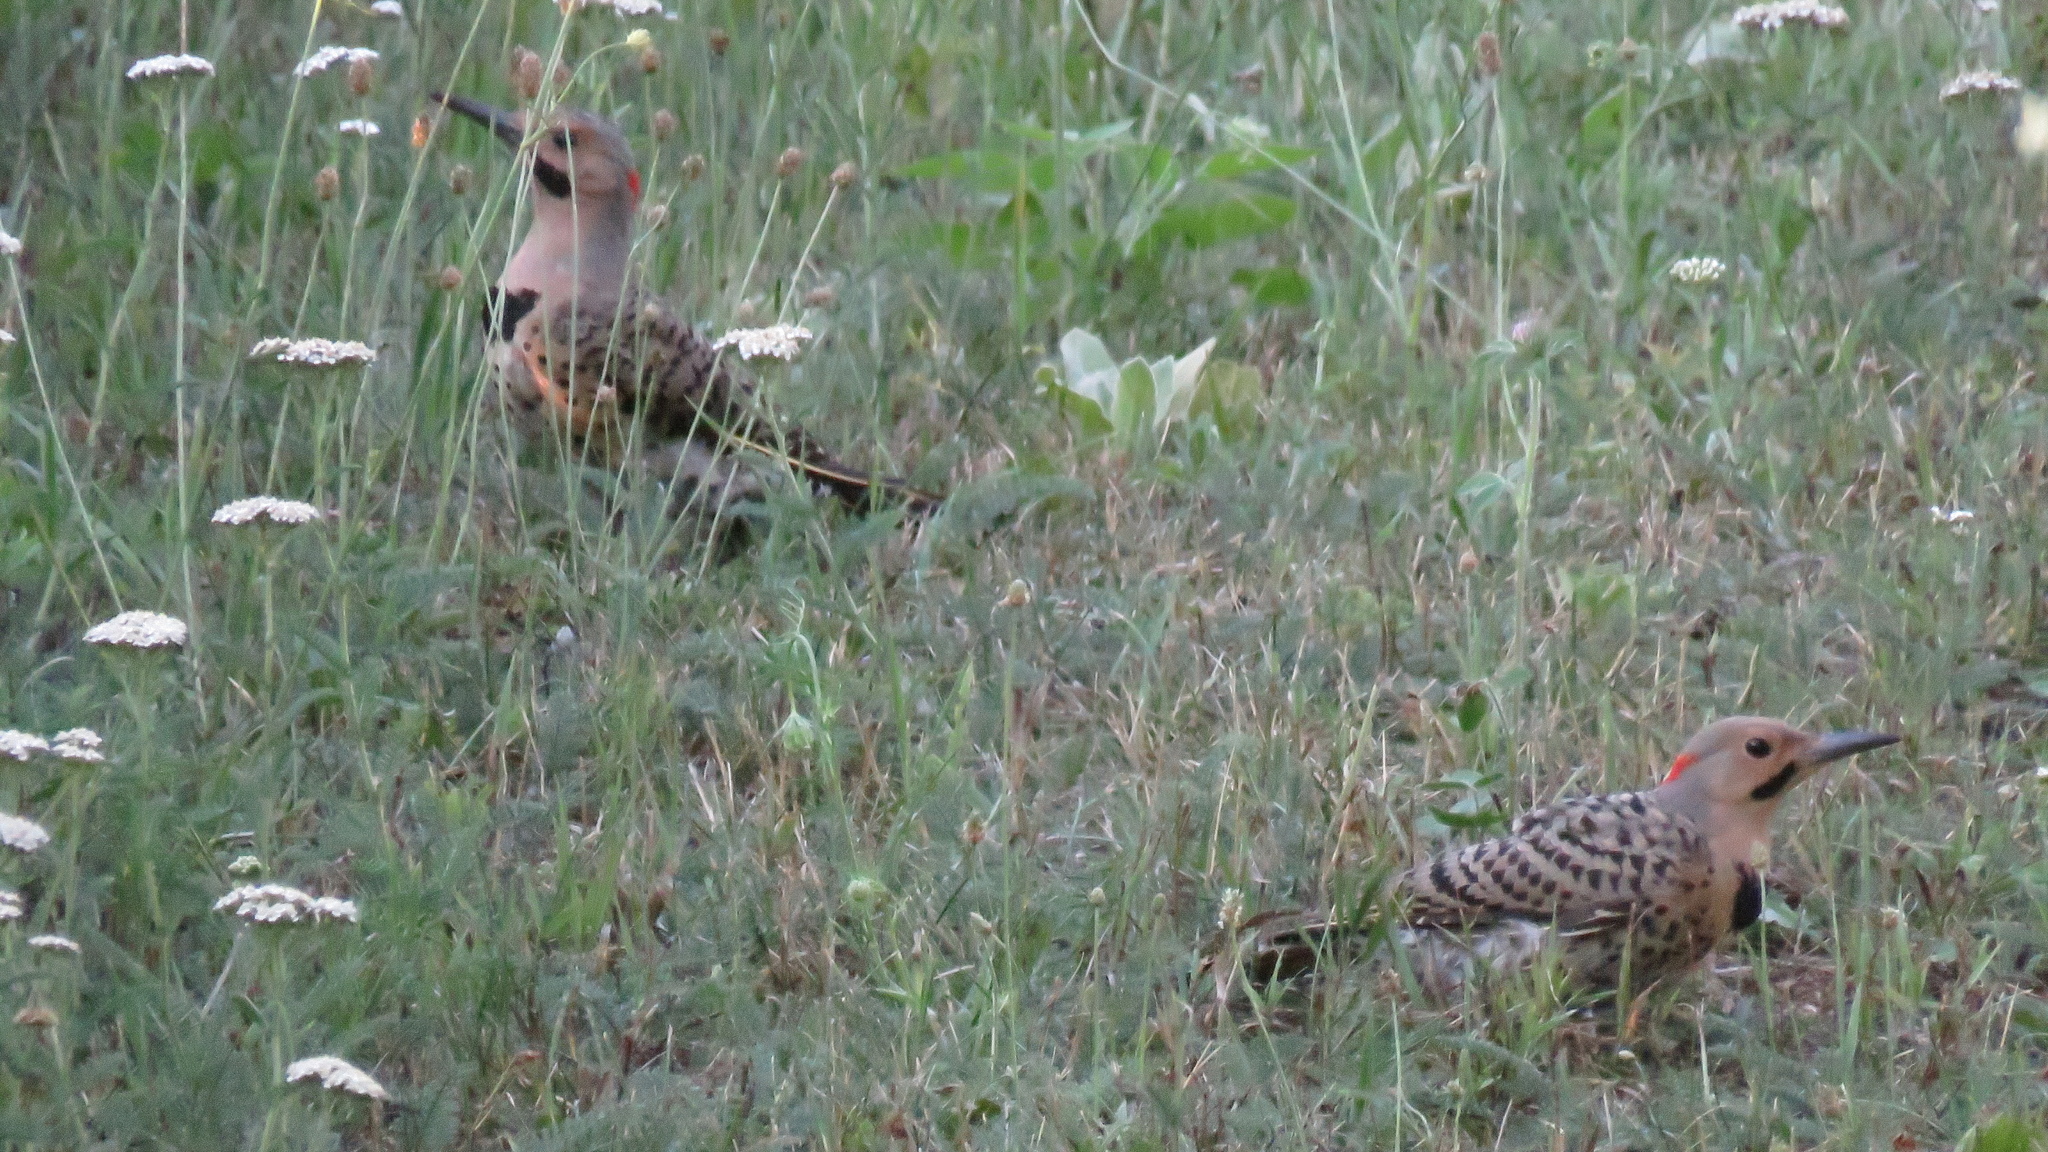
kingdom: Animalia
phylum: Chordata
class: Aves
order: Piciformes
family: Picidae
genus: Colaptes
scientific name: Colaptes auratus
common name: Northern flicker
